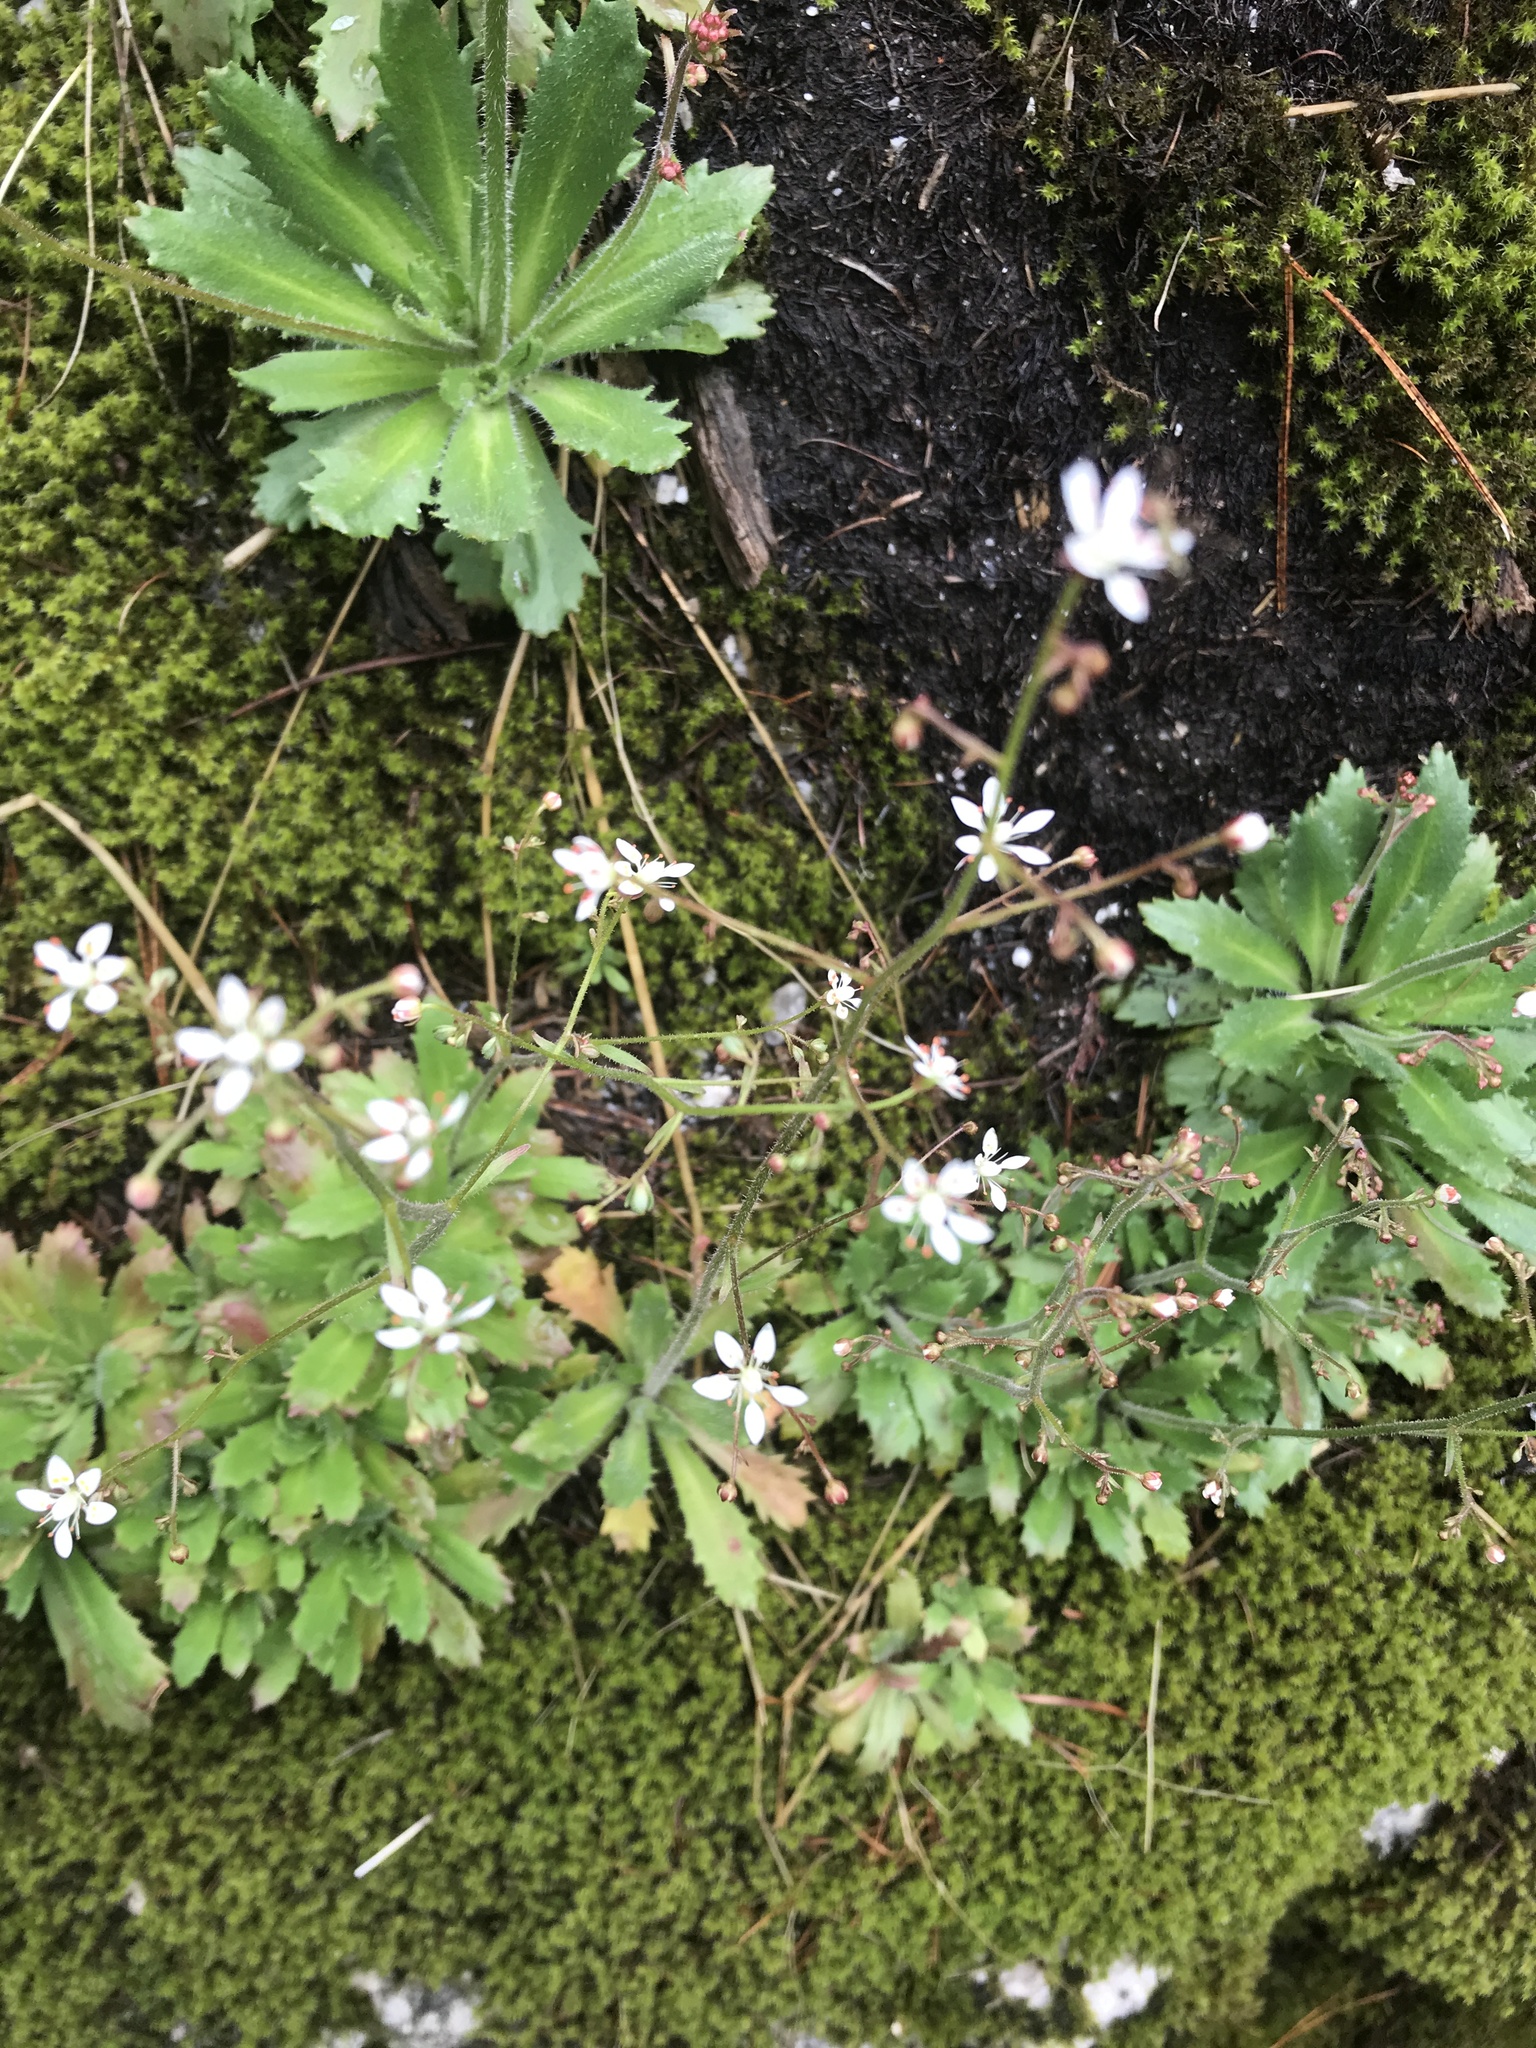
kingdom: Plantae
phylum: Tracheophyta
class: Magnoliopsida
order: Saxifragales
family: Saxifragaceae
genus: Micranthes
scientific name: Micranthes ferruginea
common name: Rusty saxifrage
